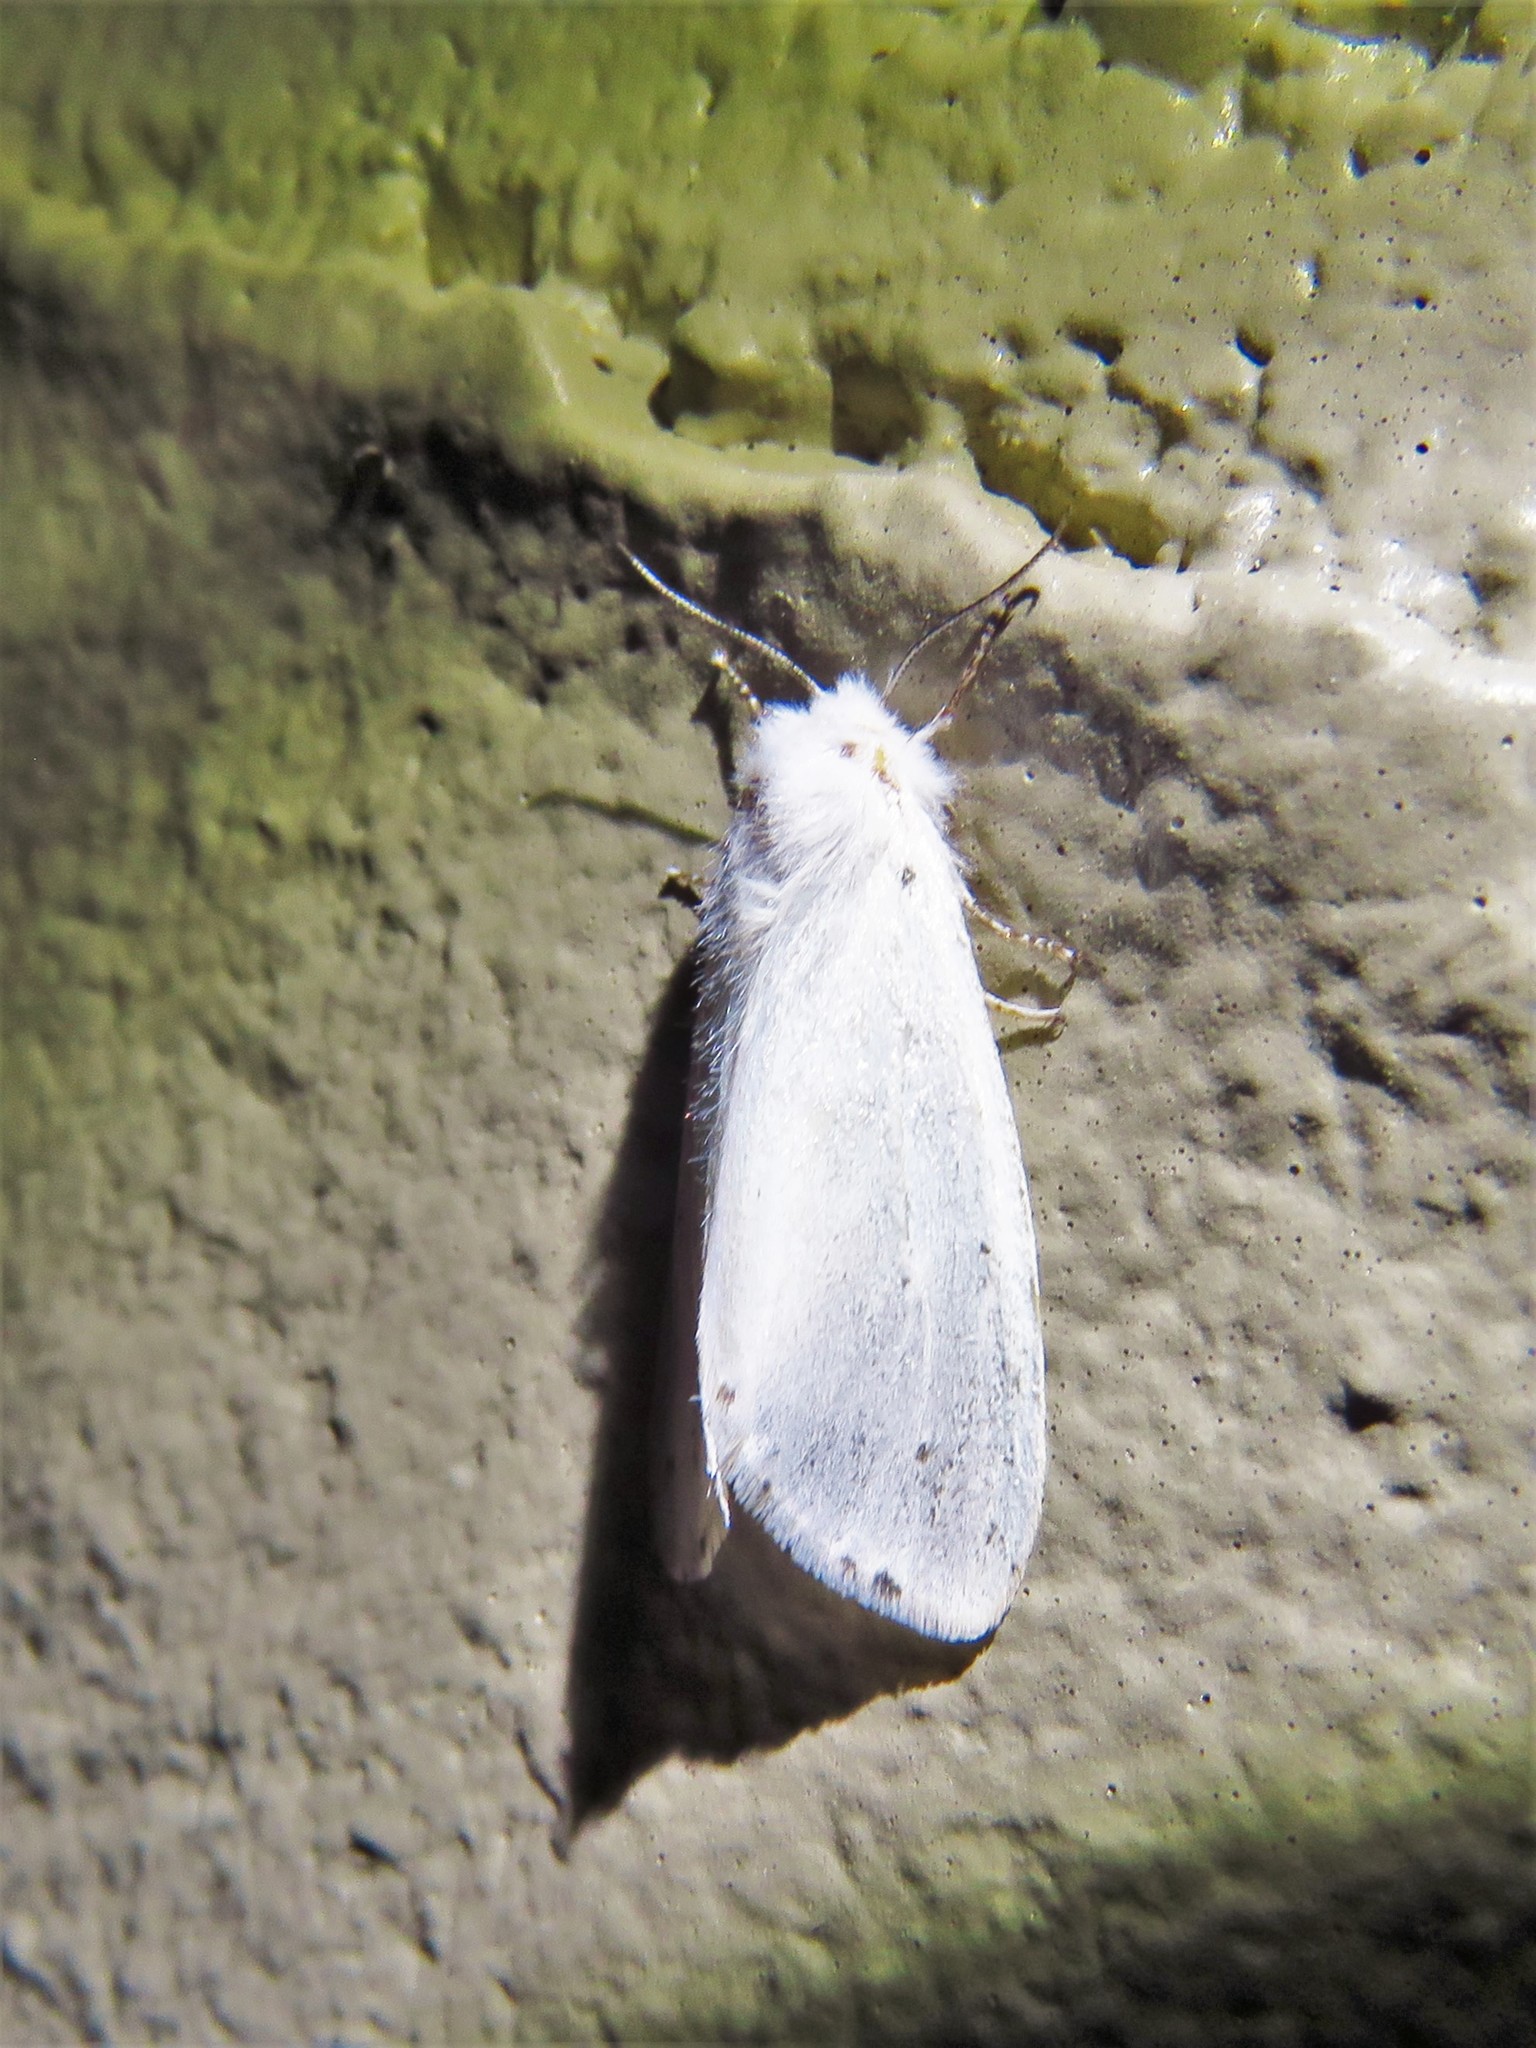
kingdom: Animalia
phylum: Arthropoda
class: Insecta
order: Lepidoptera
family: Erebidae
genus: Hyphantria
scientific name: Hyphantria cunea
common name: American white moth
